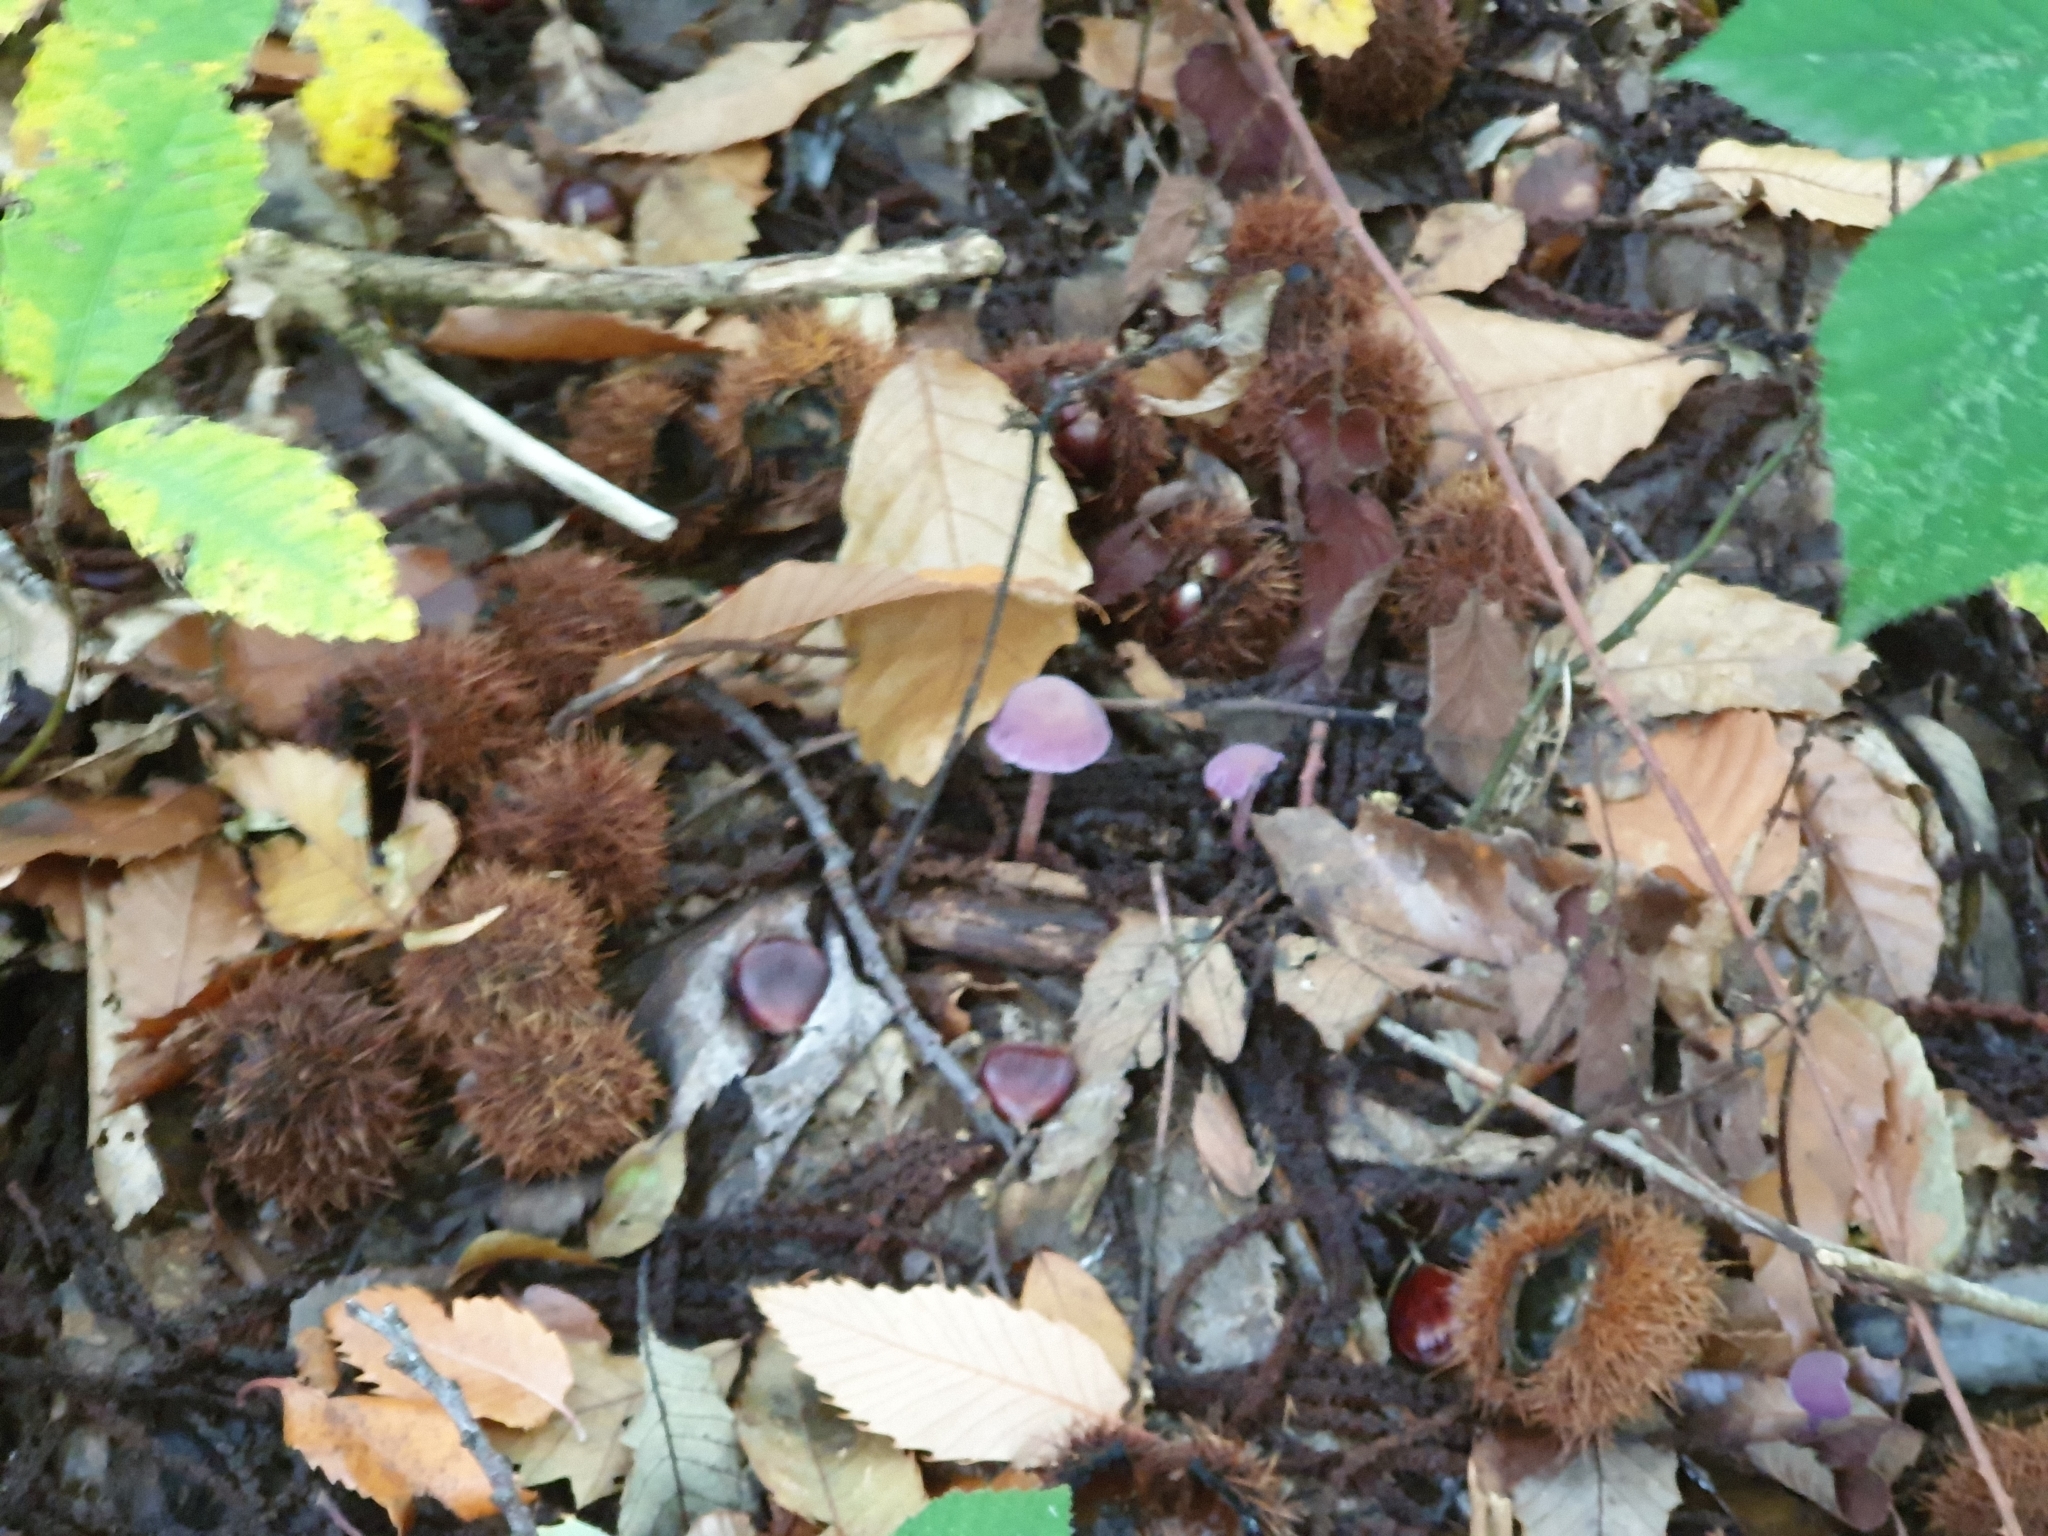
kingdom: Fungi
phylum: Basidiomycota
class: Agaricomycetes
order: Agaricales
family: Hydnangiaceae
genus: Laccaria
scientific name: Laccaria amethystina
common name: Amethyst deceiver
